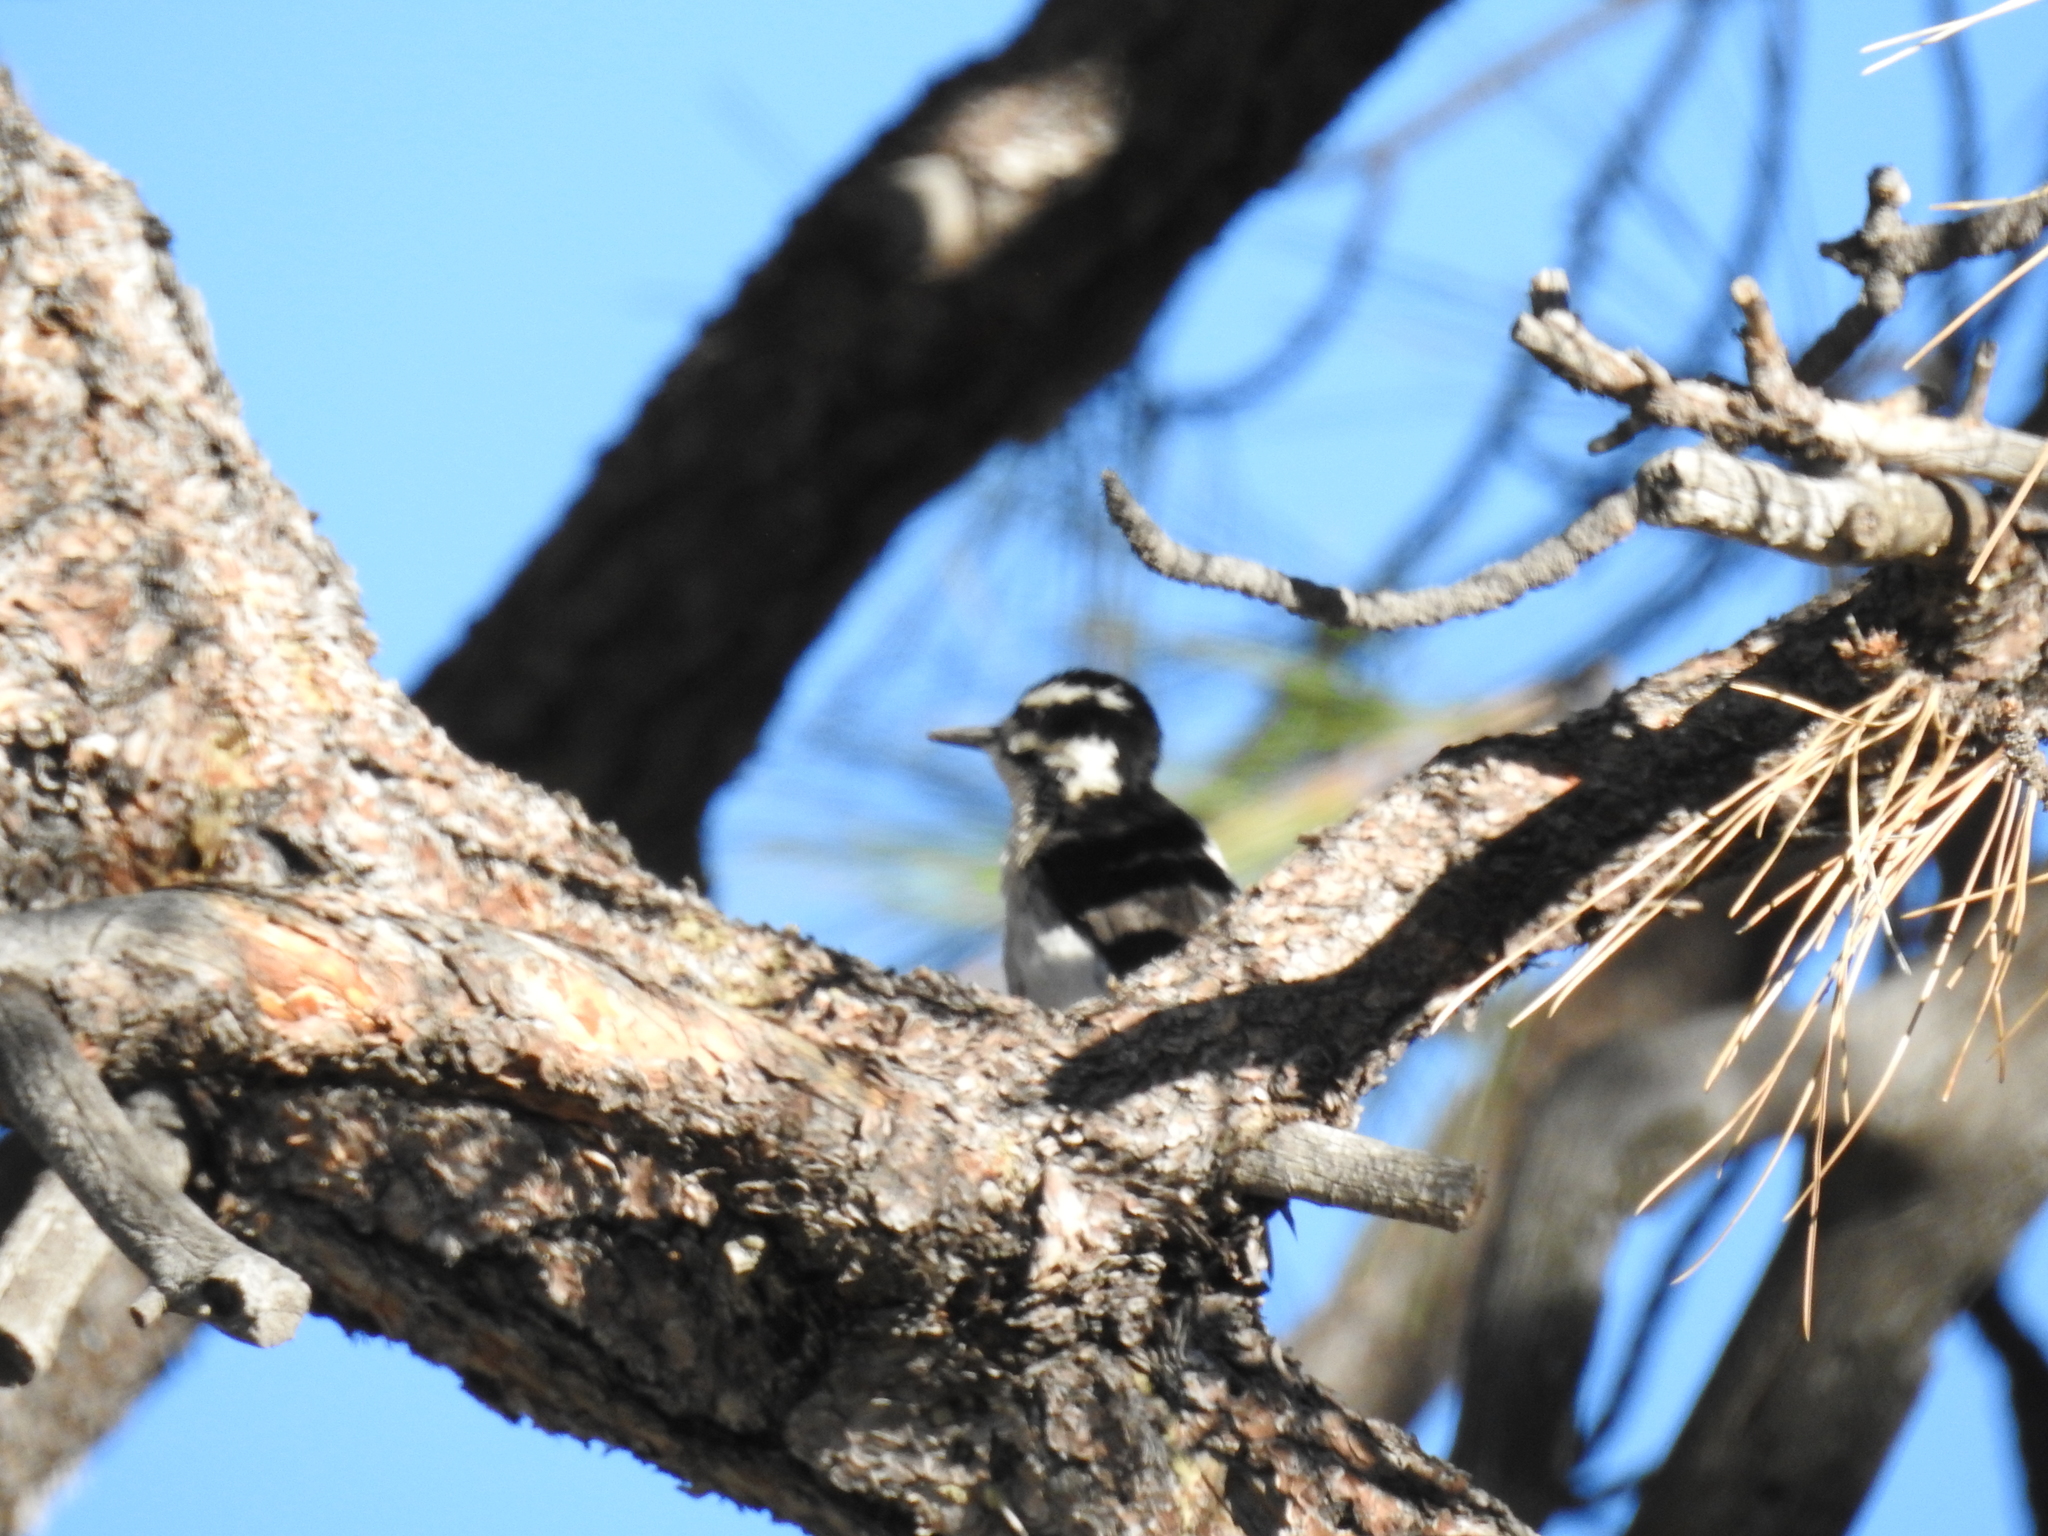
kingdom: Animalia
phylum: Chordata
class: Aves
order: Piciformes
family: Picidae
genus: Leuconotopicus
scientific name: Leuconotopicus villosus
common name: Hairy woodpecker
